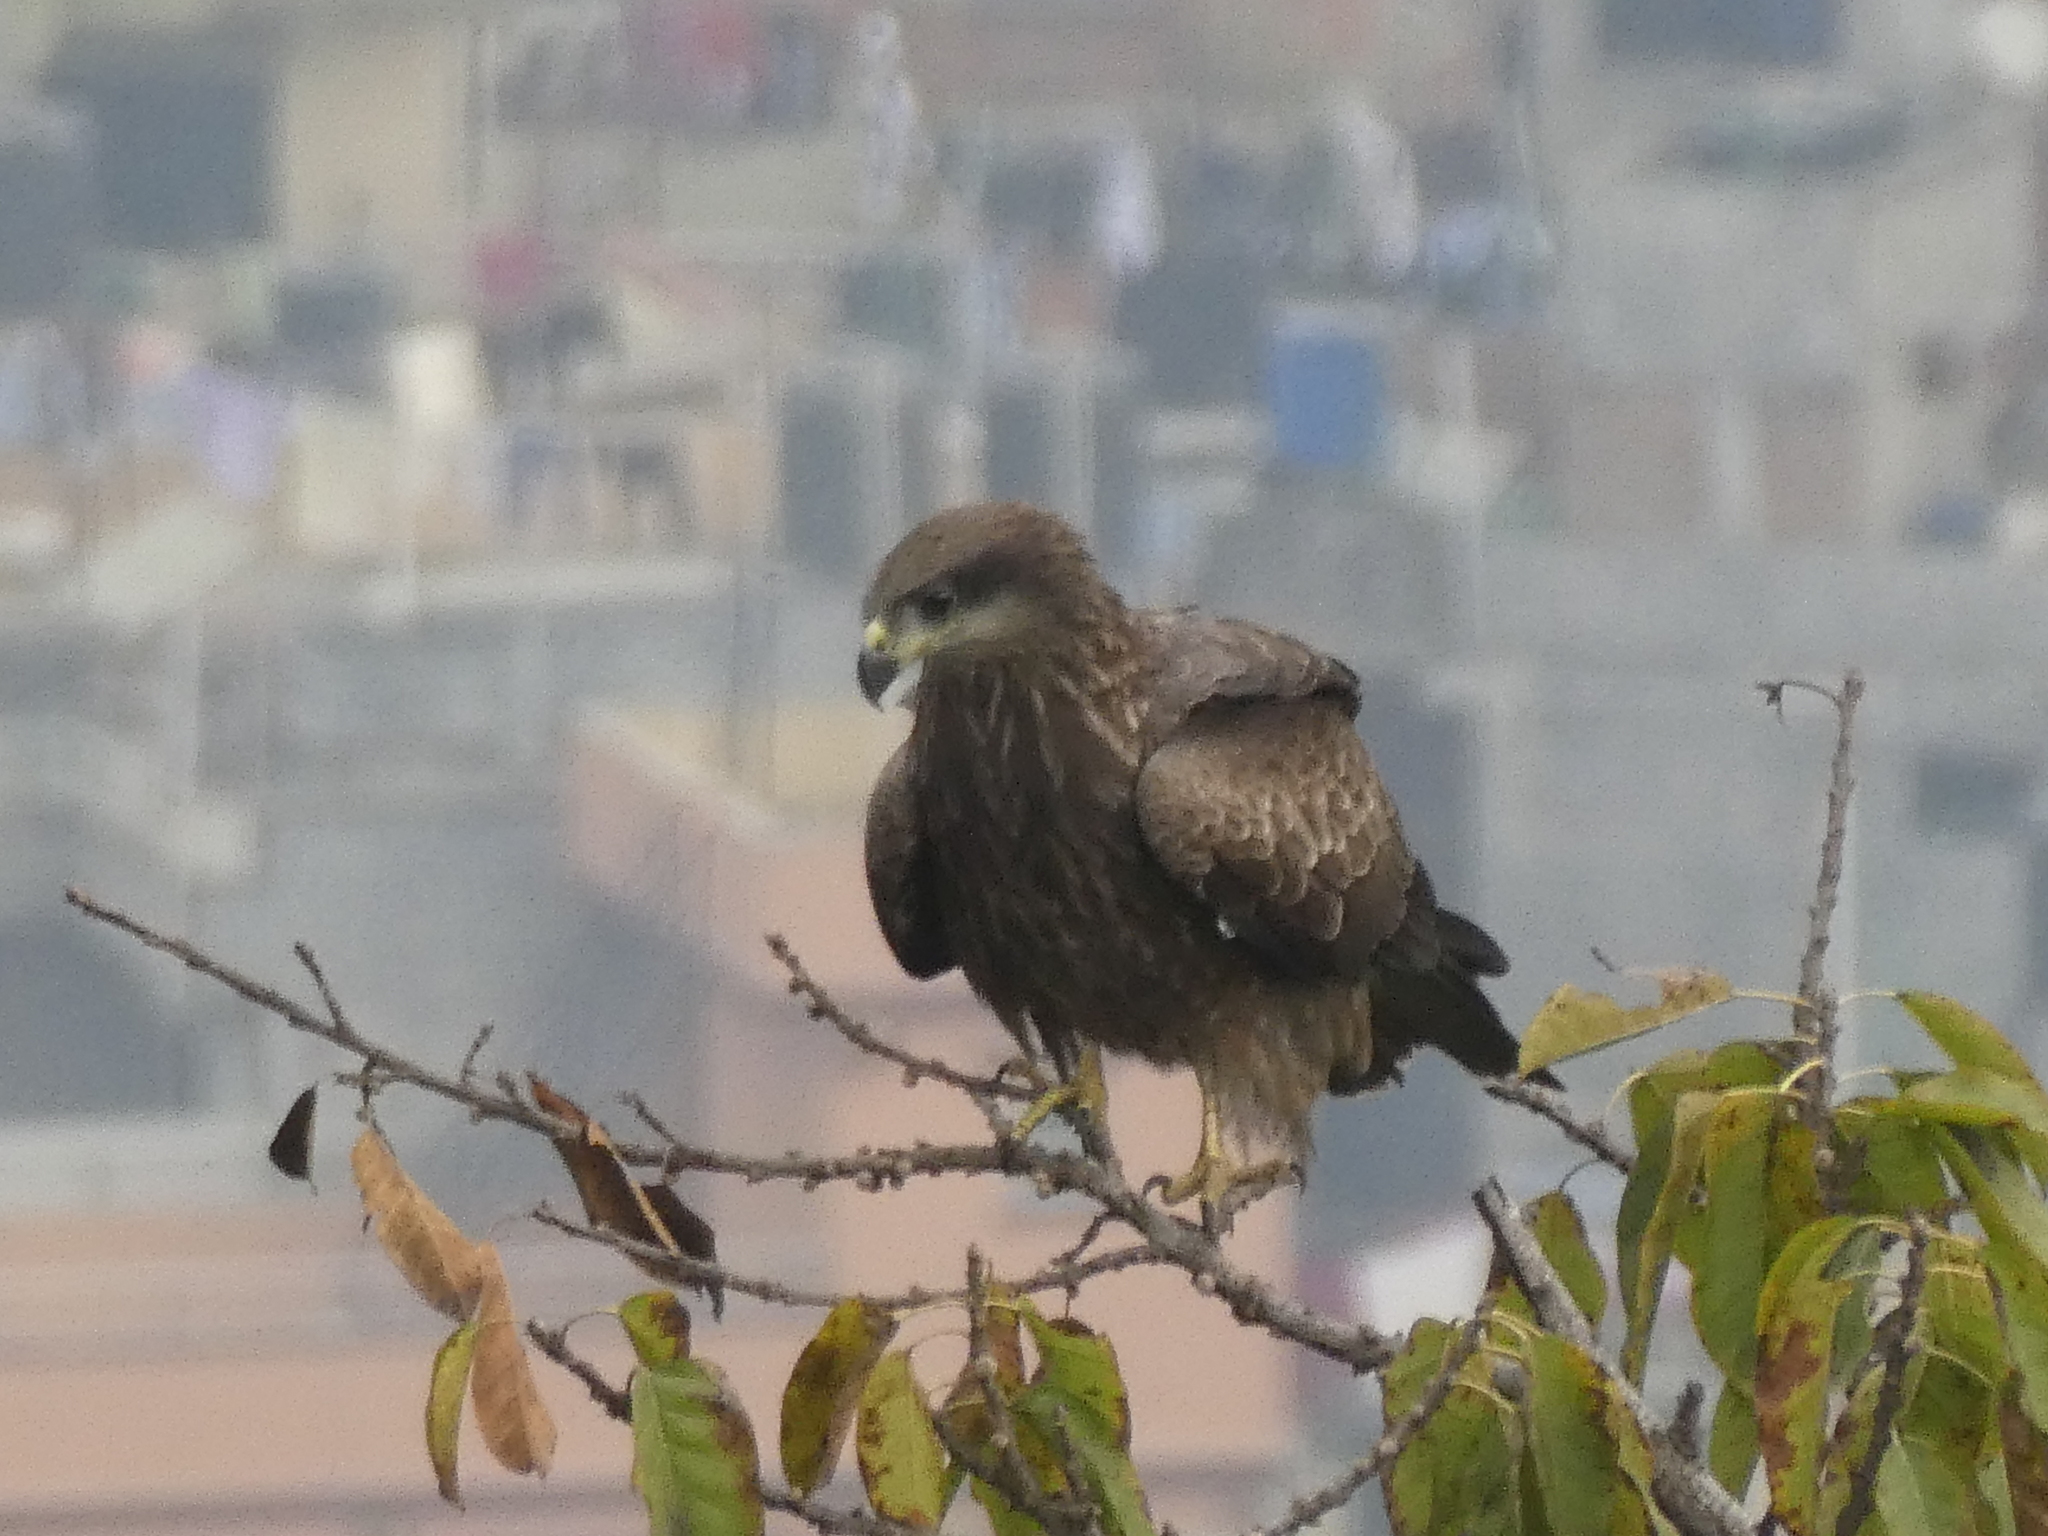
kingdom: Animalia
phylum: Chordata
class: Aves
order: Accipitriformes
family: Accipitridae
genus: Milvus
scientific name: Milvus migrans
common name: Black kite
